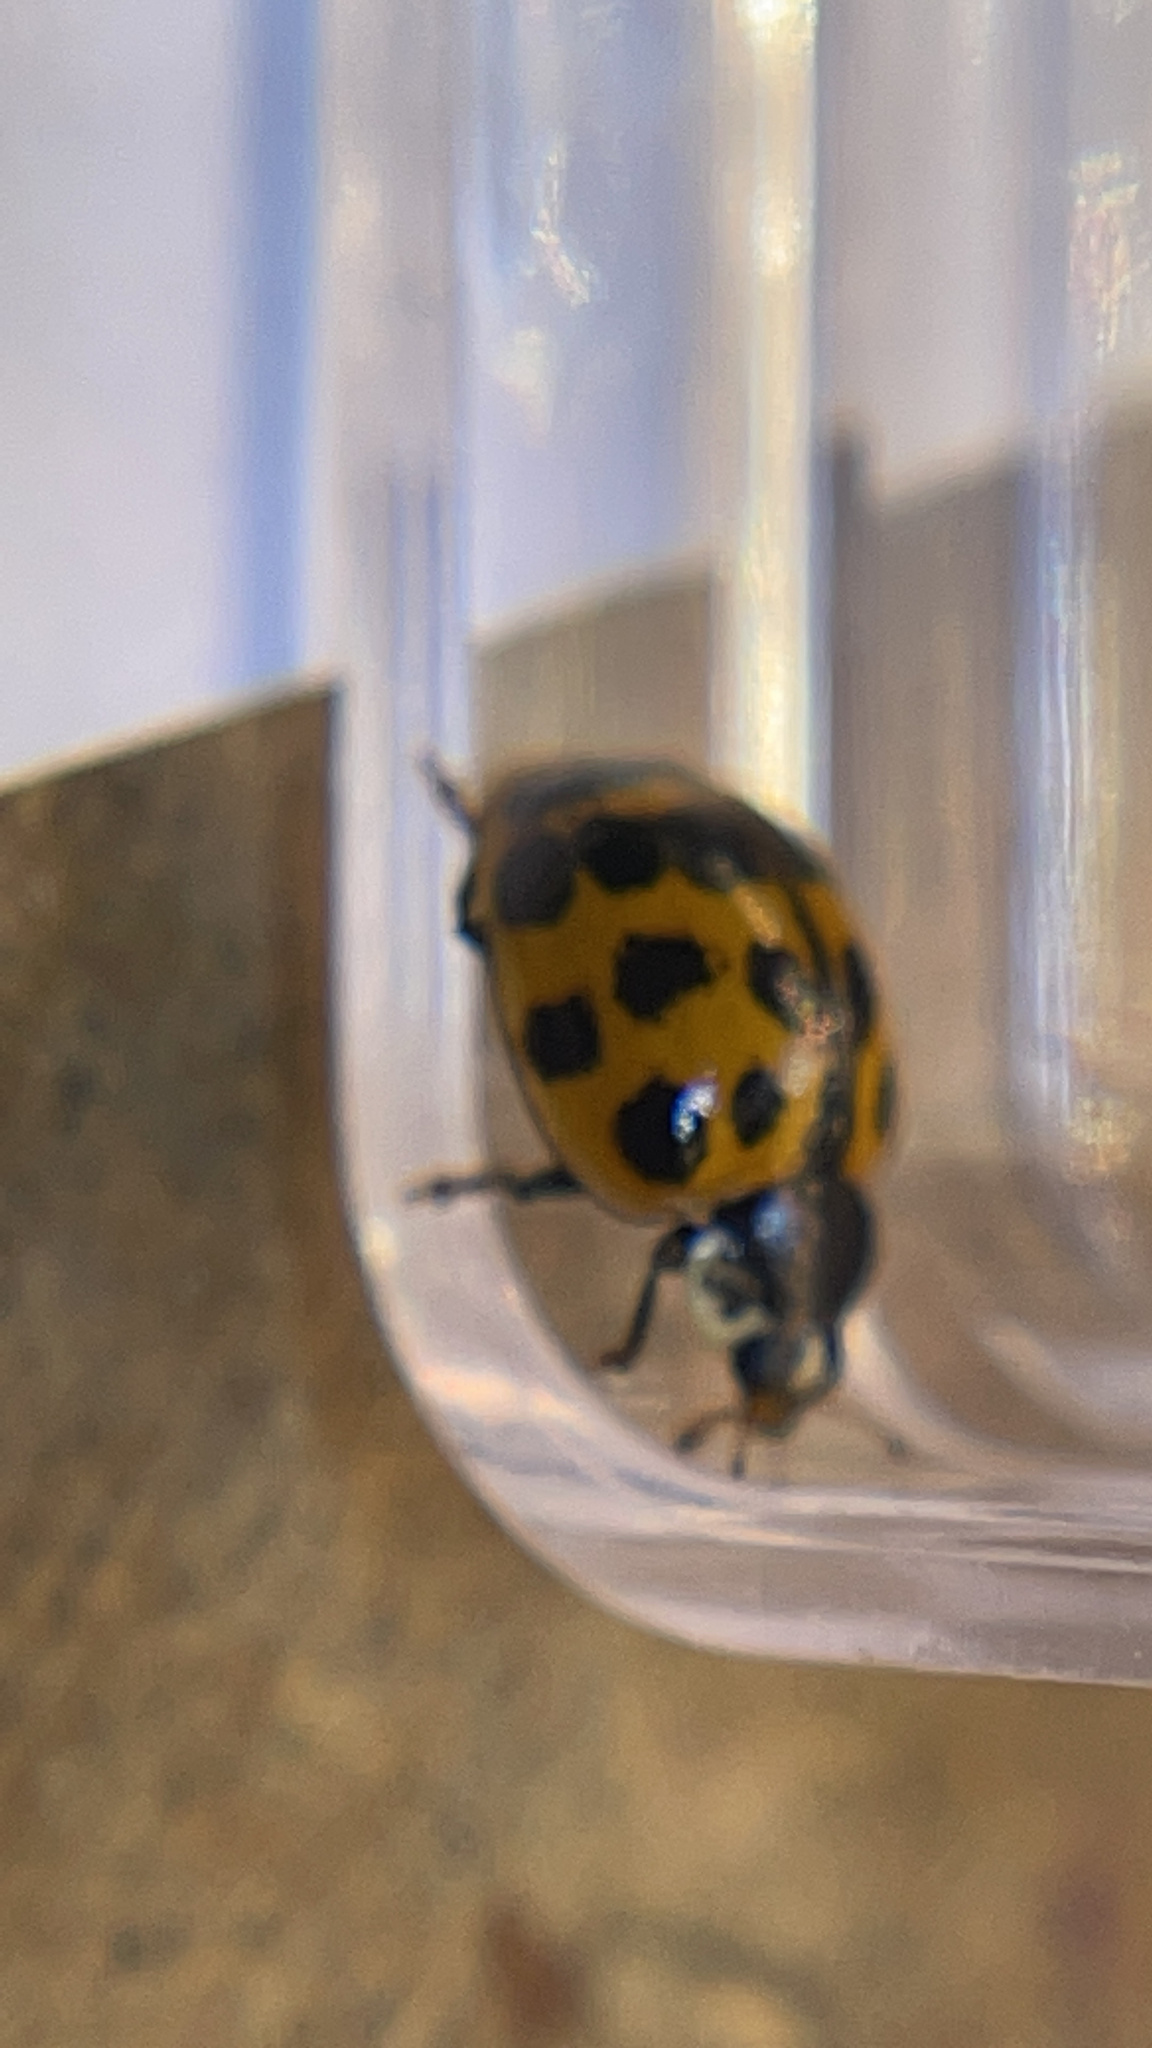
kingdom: Animalia
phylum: Arthropoda
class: Insecta
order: Coleoptera
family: Coccinellidae
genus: Harmonia
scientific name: Harmonia axyridis
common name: Harlequin ladybird
